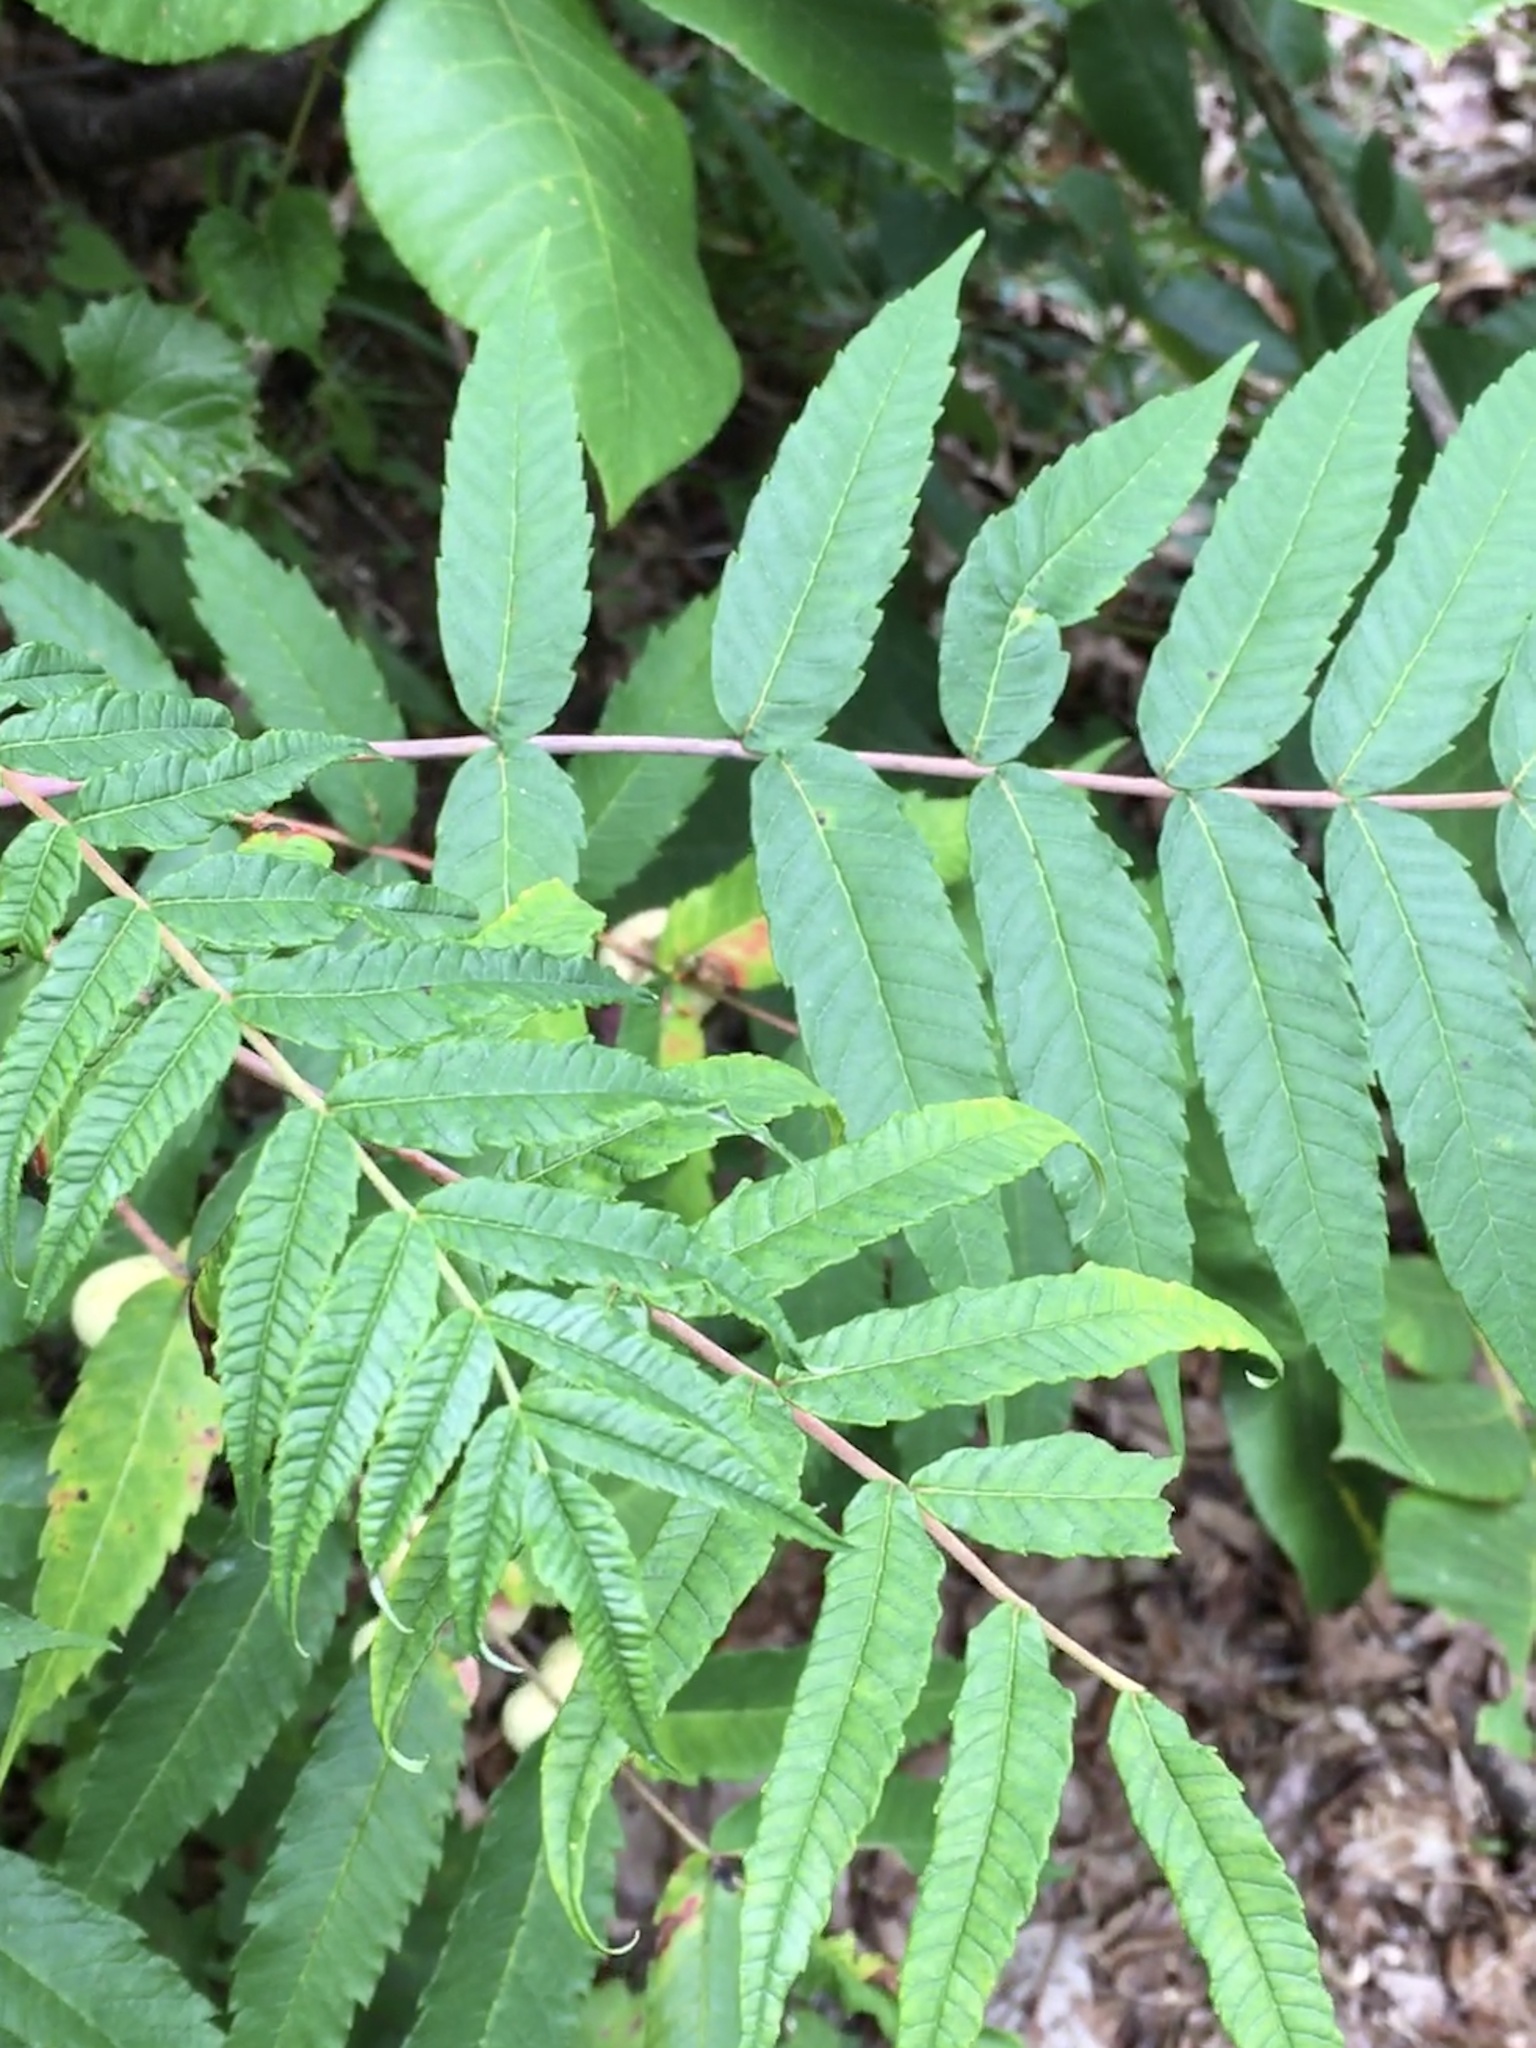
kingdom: Plantae
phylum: Tracheophyta
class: Magnoliopsida
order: Sapindales
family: Anacardiaceae
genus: Rhus
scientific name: Rhus glabra
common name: Scarlet sumac
